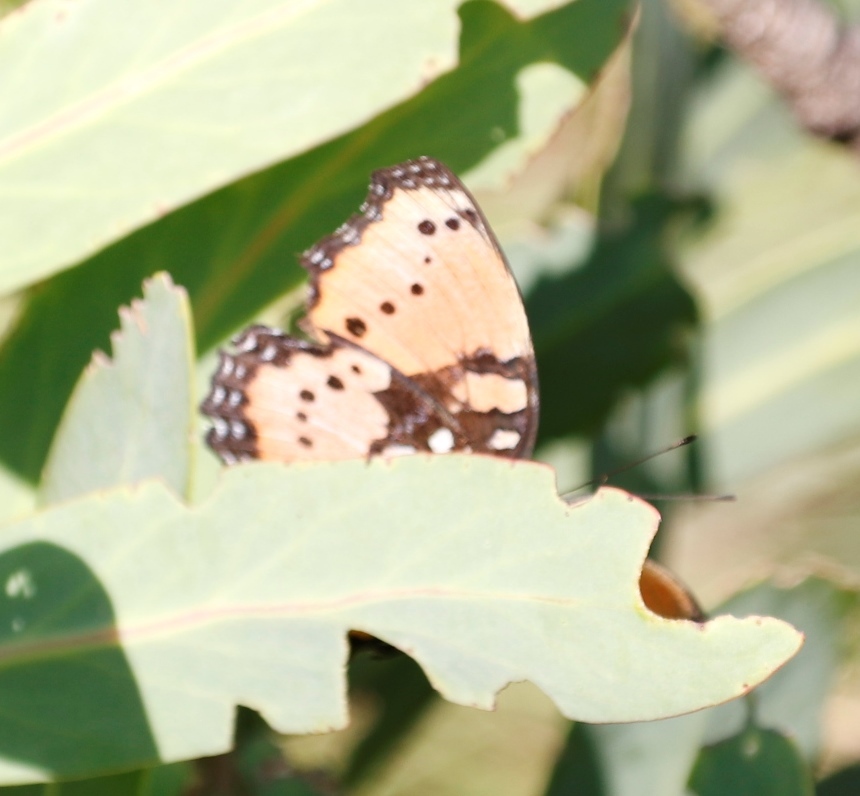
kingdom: Animalia
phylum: Arthropoda
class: Insecta
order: Lepidoptera
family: Nymphalidae
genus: Precis
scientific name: Precis octavia
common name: Gaudy commodore
